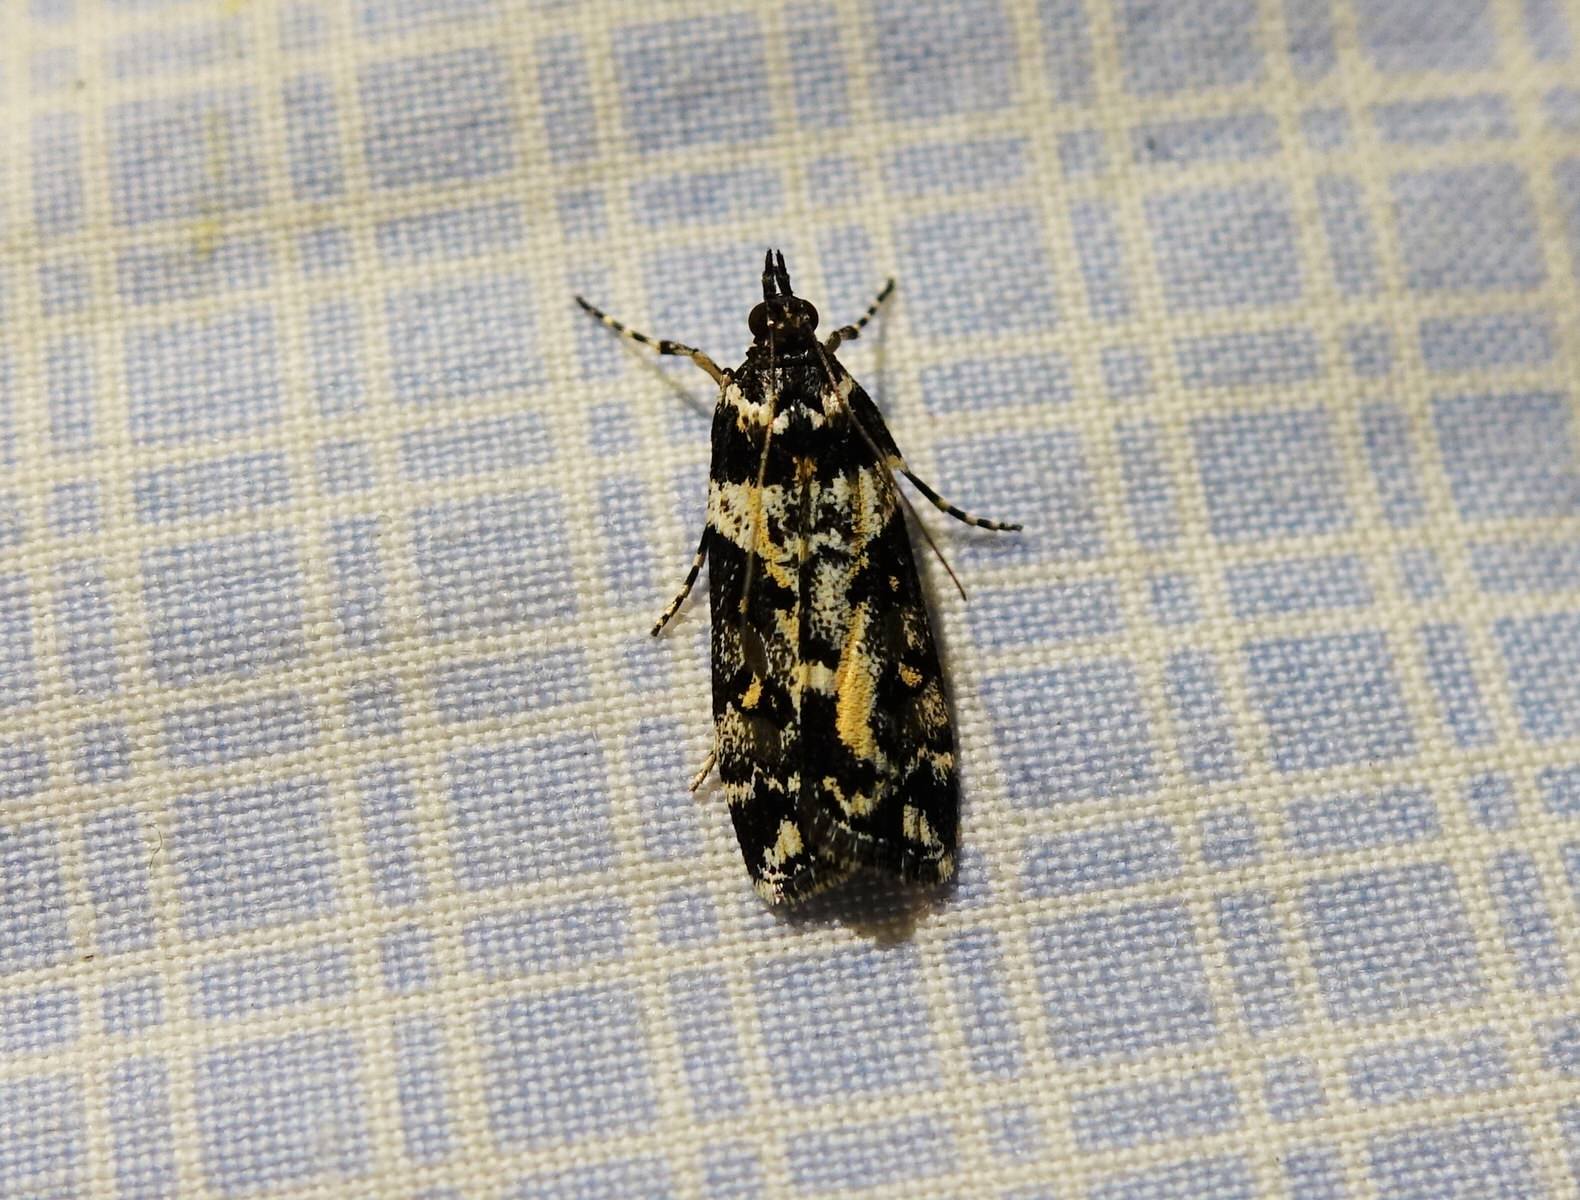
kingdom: Animalia
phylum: Arthropoda
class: Insecta
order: Lepidoptera
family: Crambidae
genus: Eudonia
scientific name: Eudonia diphtheralis
